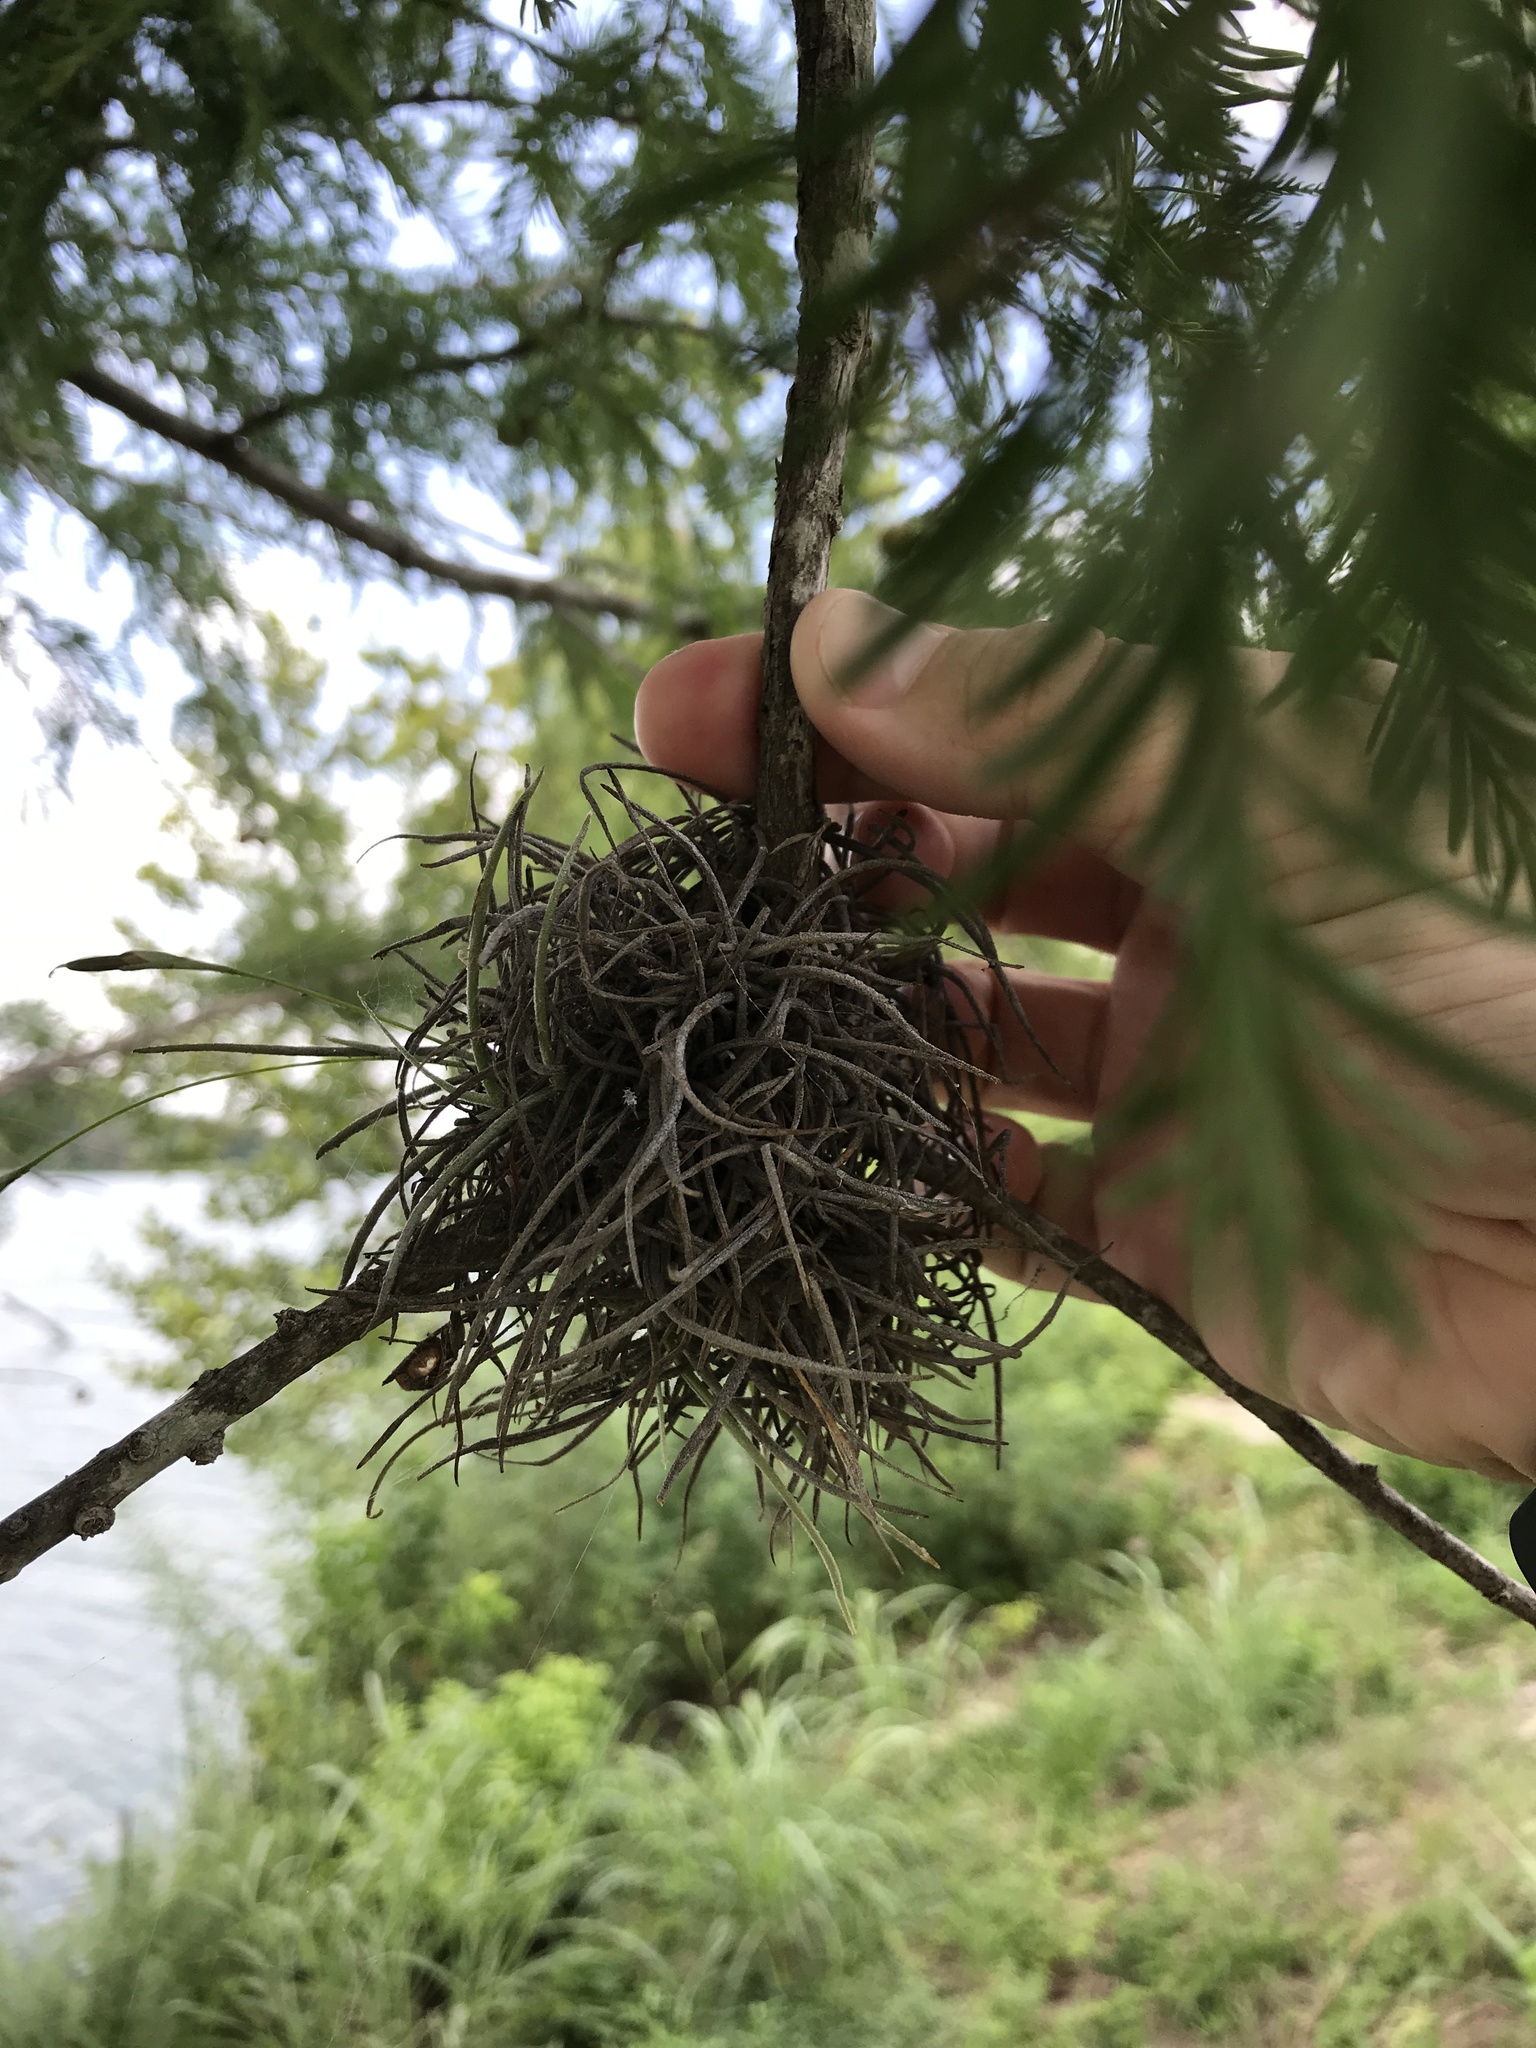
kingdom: Plantae
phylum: Tracheophyta
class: Liliopsida
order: Poales
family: Bromeliaceae
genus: Tillandsia
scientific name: Tillandsia recurvata
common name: Small ballmoss
